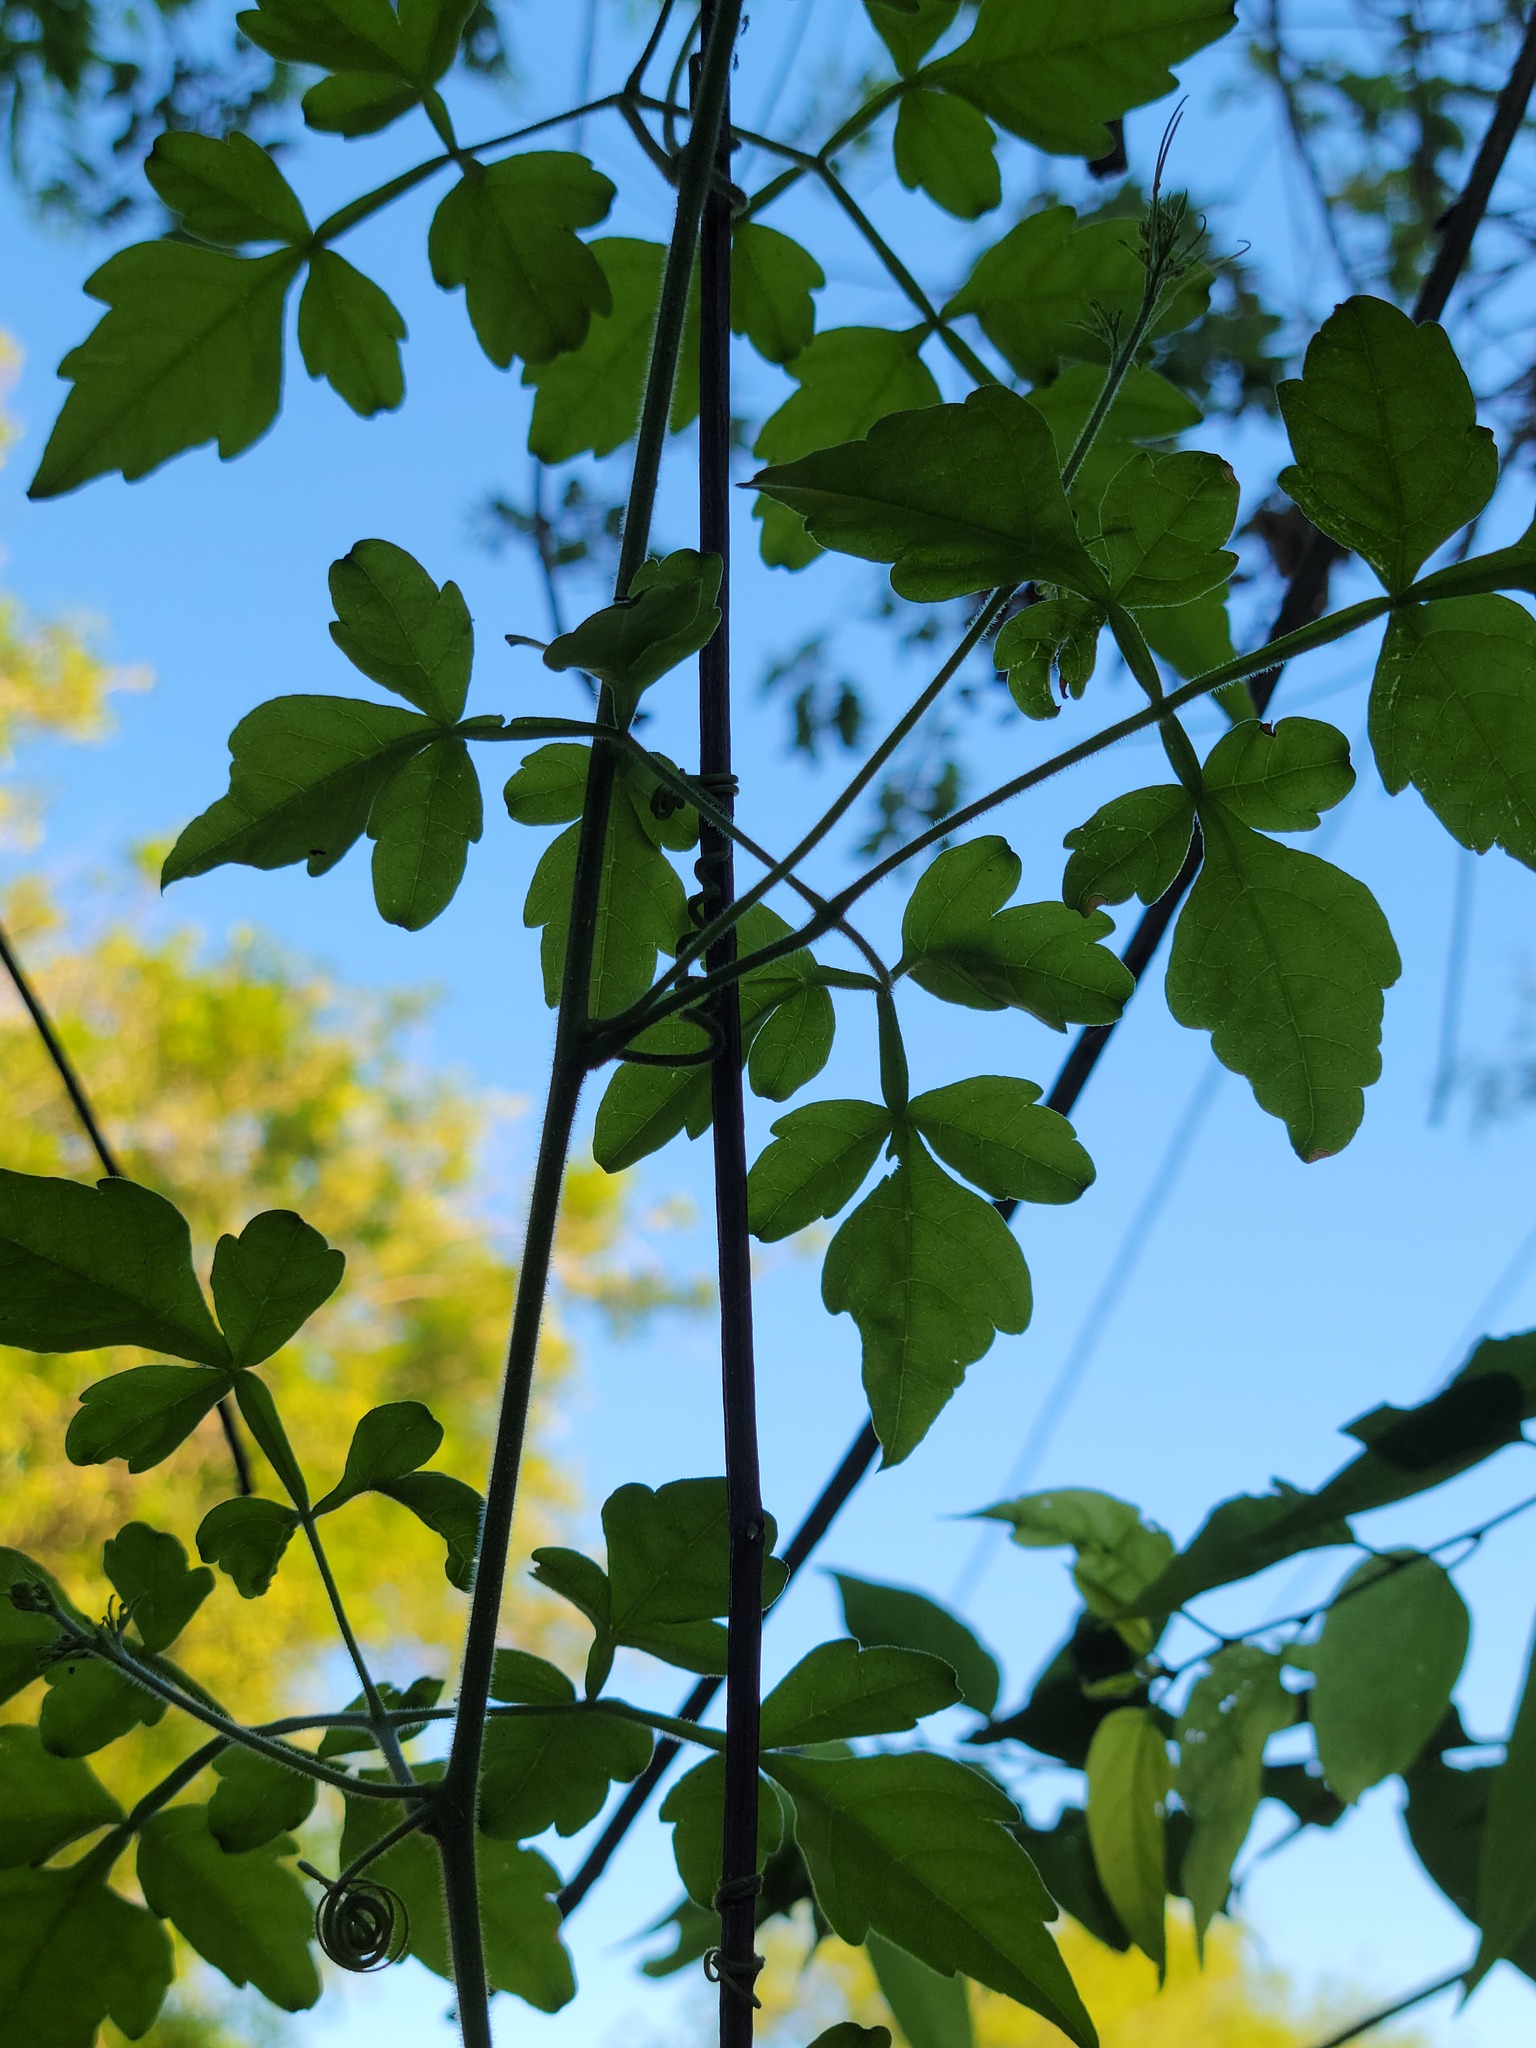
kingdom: Plantae
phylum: Tracheophyta
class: Magnoliopsida
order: Sapindales
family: Sapindaceae
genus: Serjania
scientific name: Serjania brachycarpa
